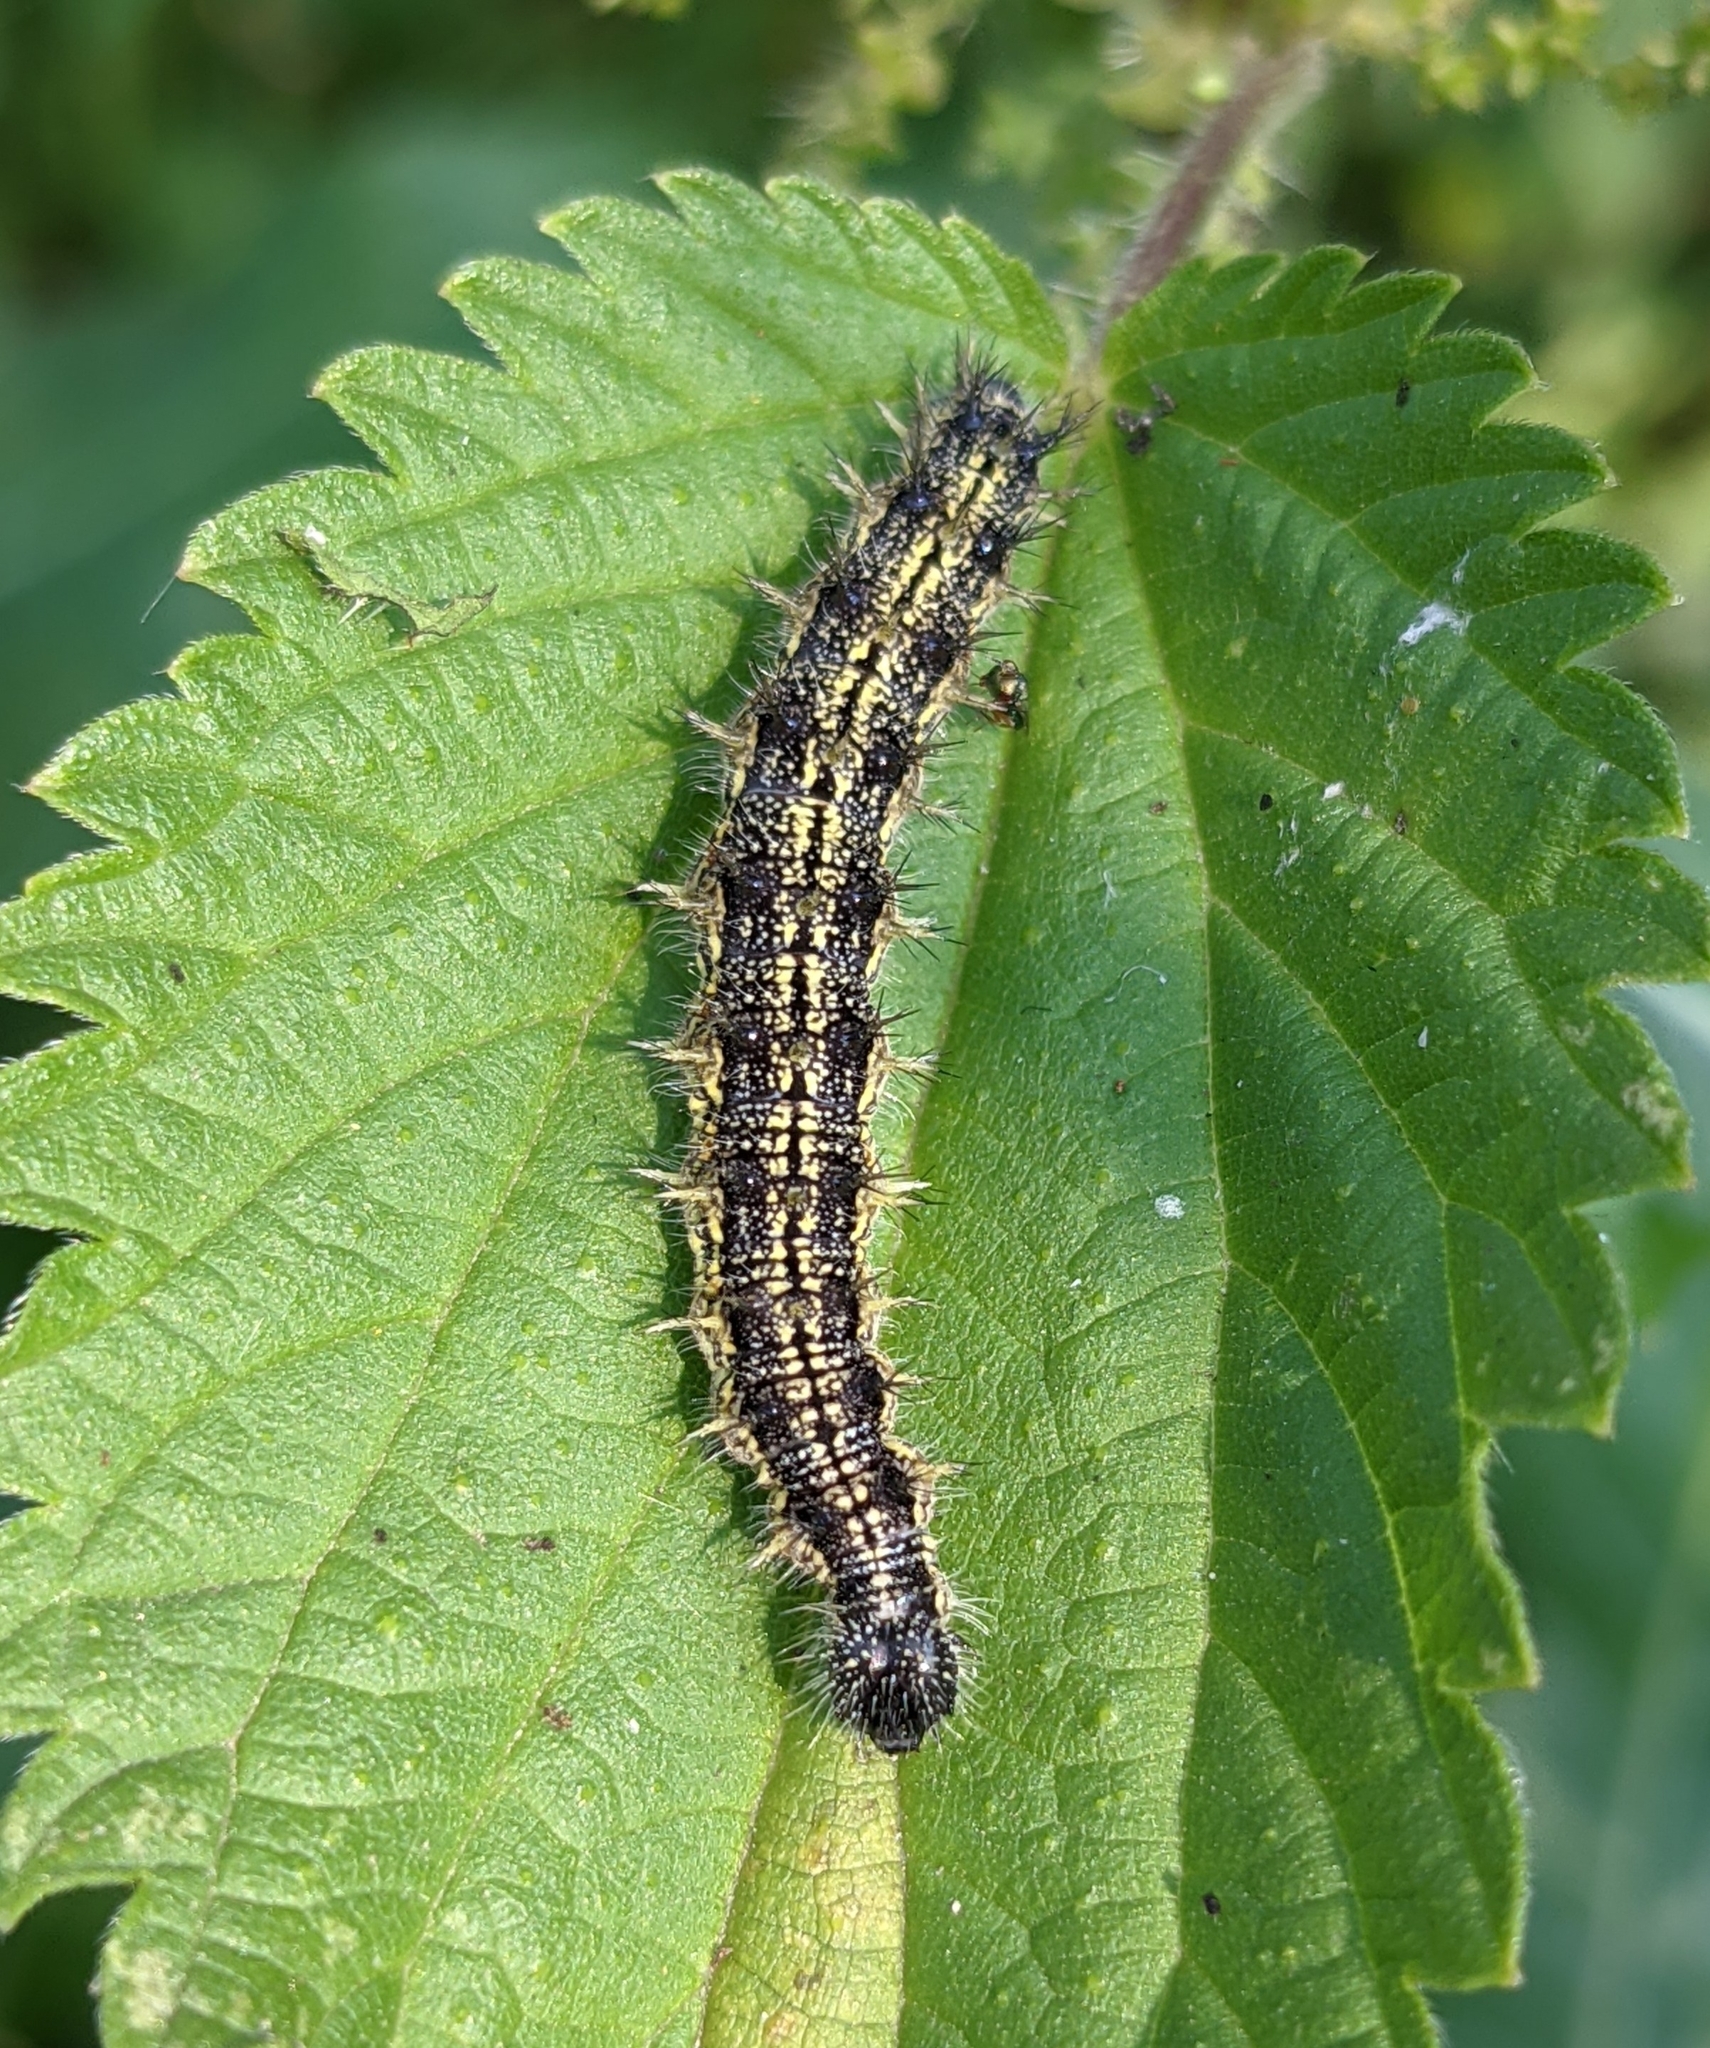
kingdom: Animalia
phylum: Arthropoda
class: Insecta
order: Lepidoptera
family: Nymphalidae
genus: Aglais
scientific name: Aglais urticae
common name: Small tortoiseshell
